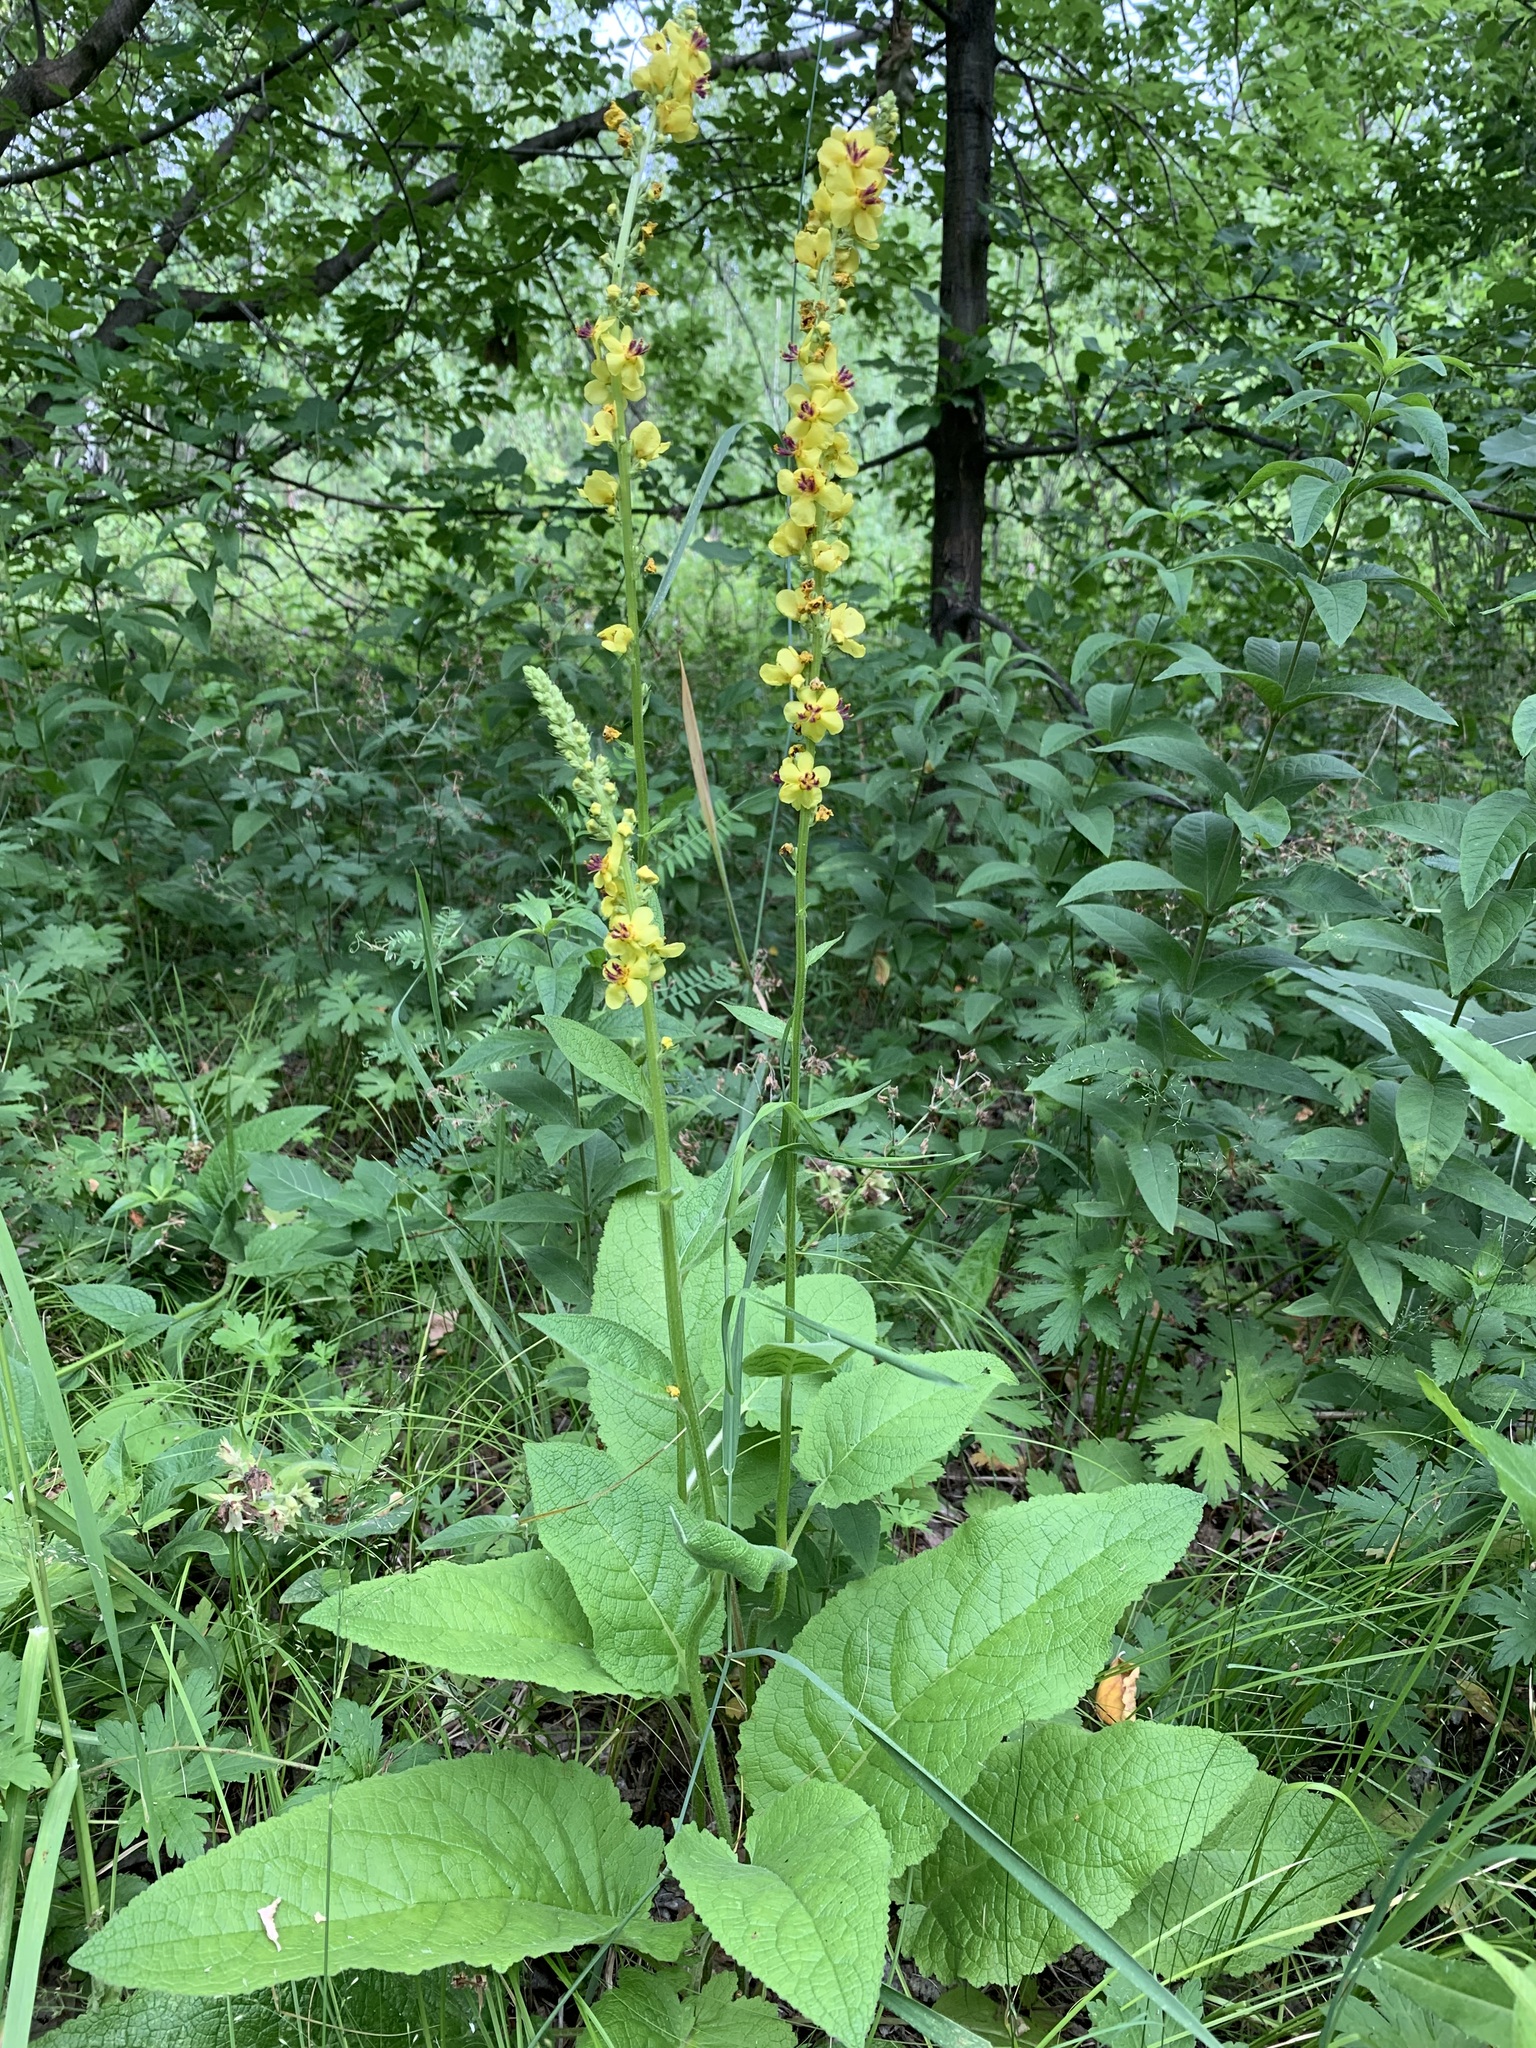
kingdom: Plantae
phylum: Tracheophyta
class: Magnoliopsida
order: Lamiales
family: Scrophulariaceae
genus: Verbascum
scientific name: Verbascum nigrum
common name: Dark mullein
